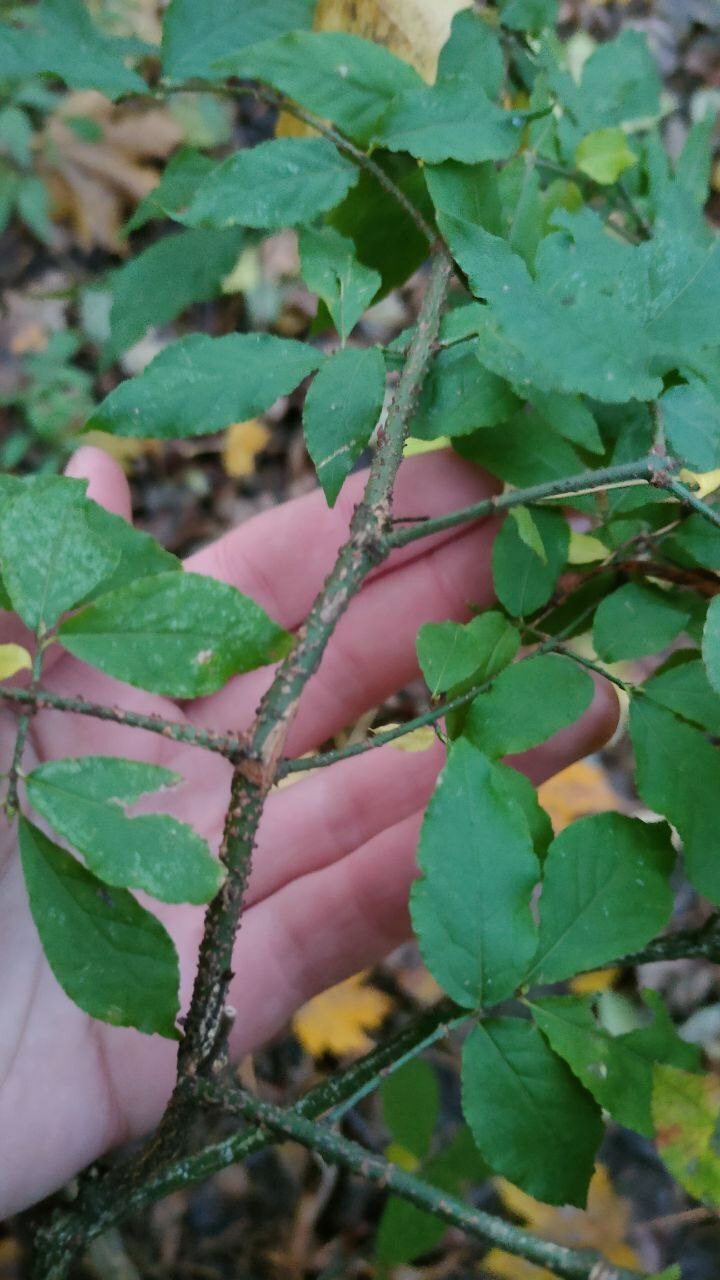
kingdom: Plantae
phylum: Tracheophyta
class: Magnoliopsida
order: Celastrales
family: Celastraceae
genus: Euonymus
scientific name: Euonymus verrucosus
